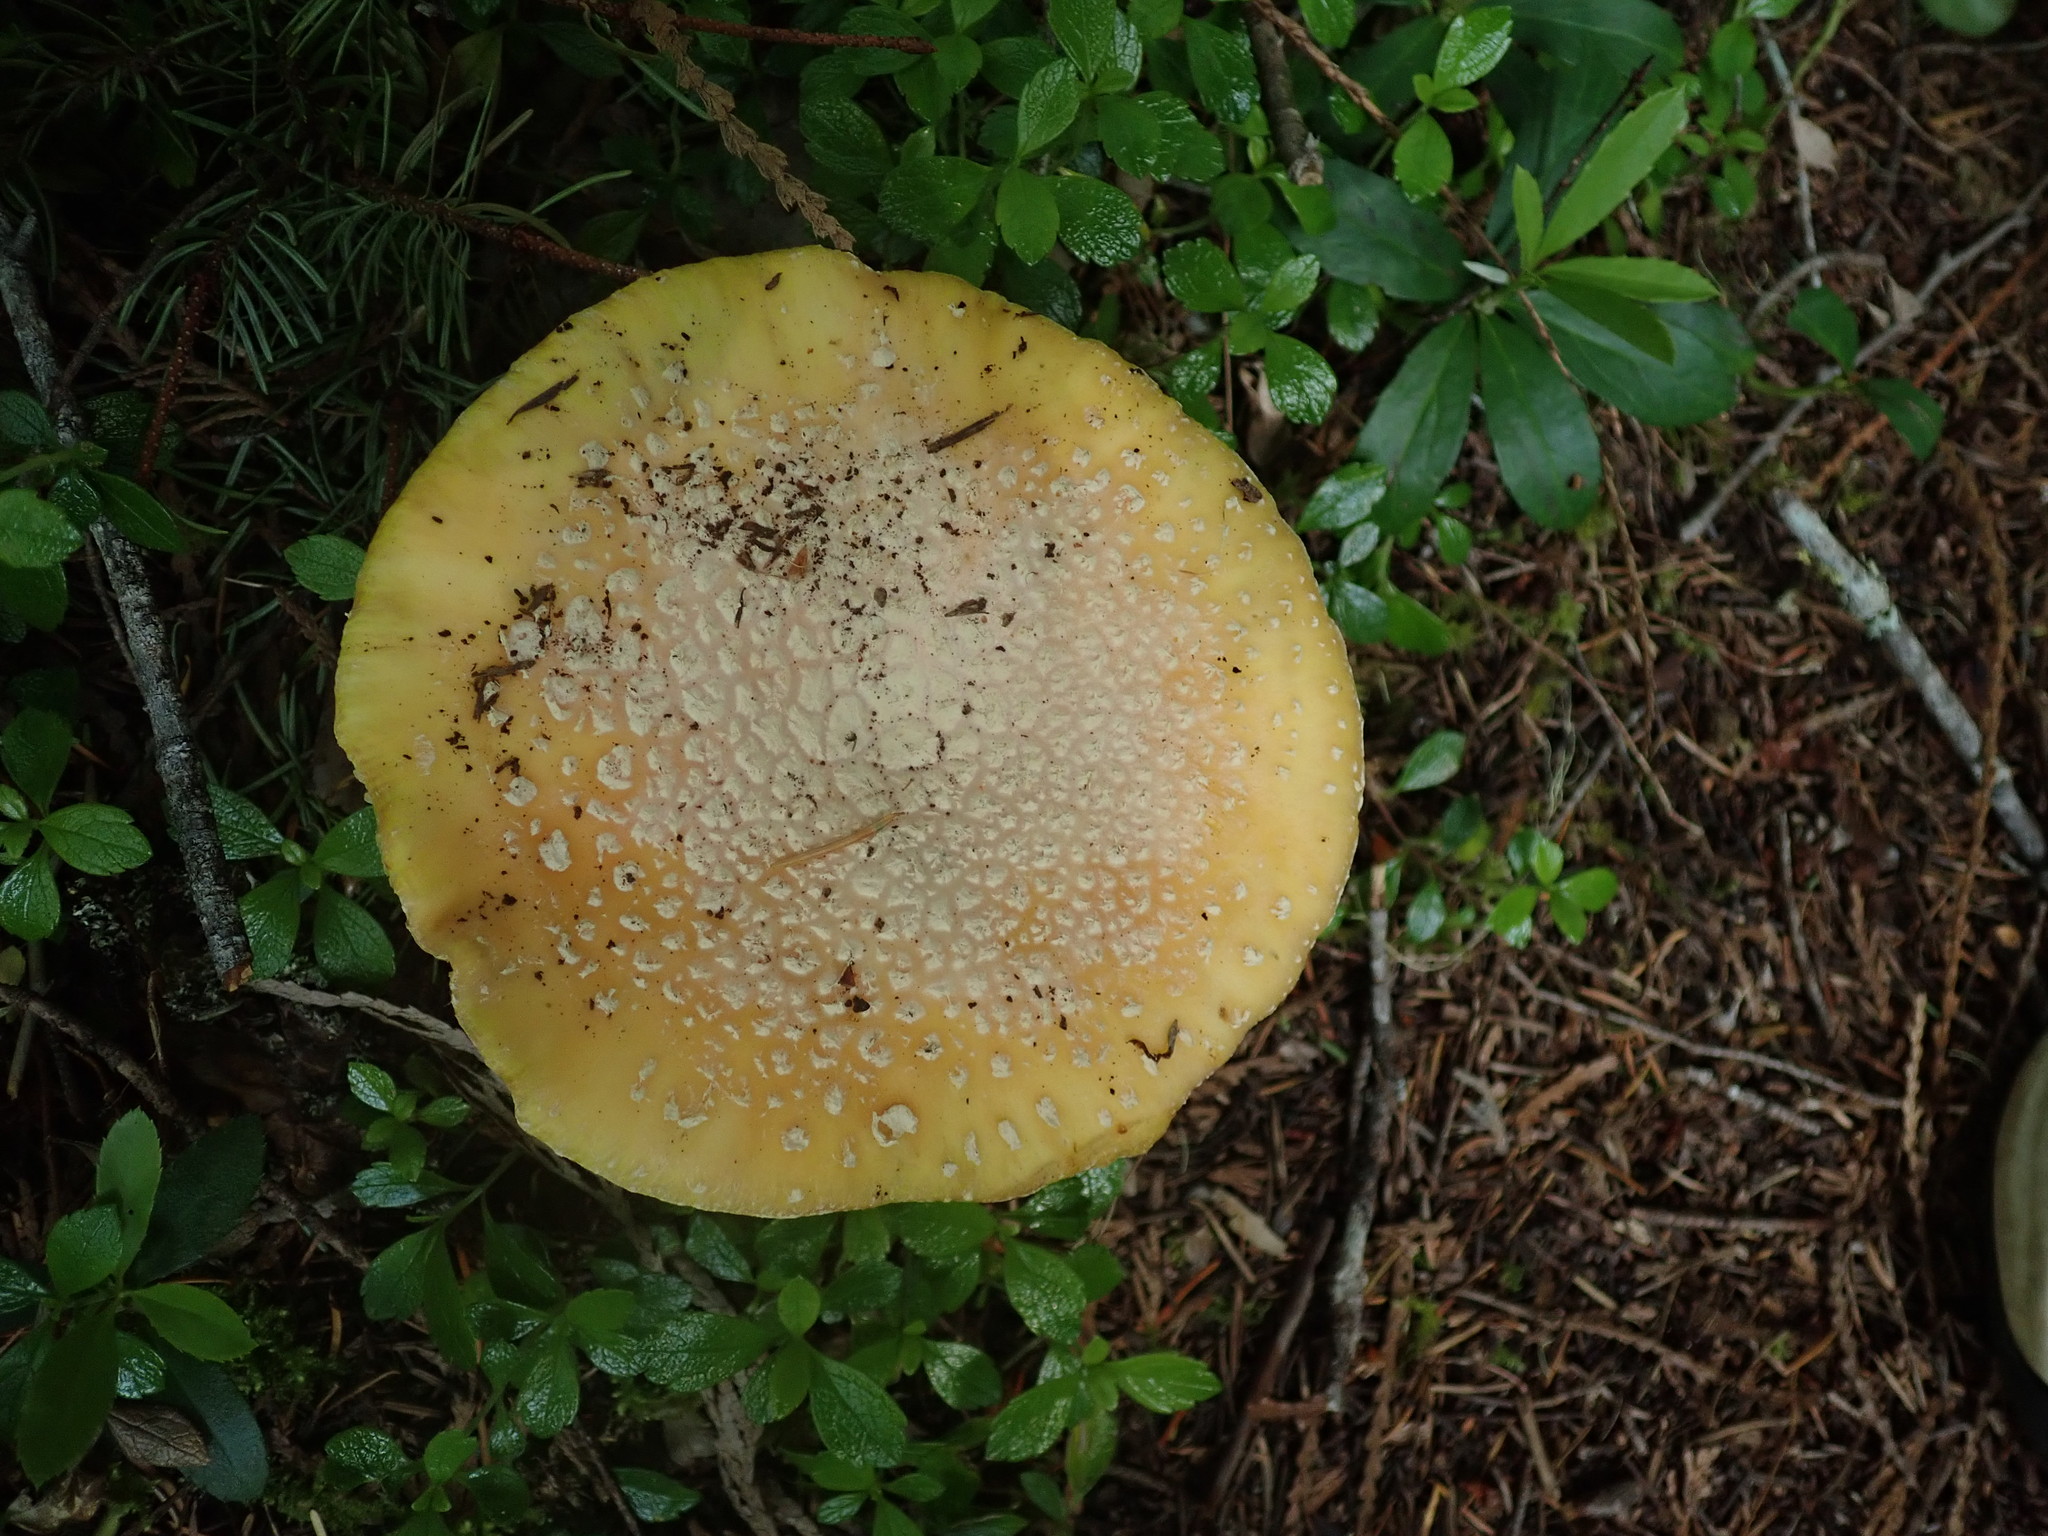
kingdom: Fungi
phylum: Basidiomycota
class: Agaricomycetes
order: Agaricales
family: Amanitaceae
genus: Amanita
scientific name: Amanita aprica
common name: Sunshine amanita
